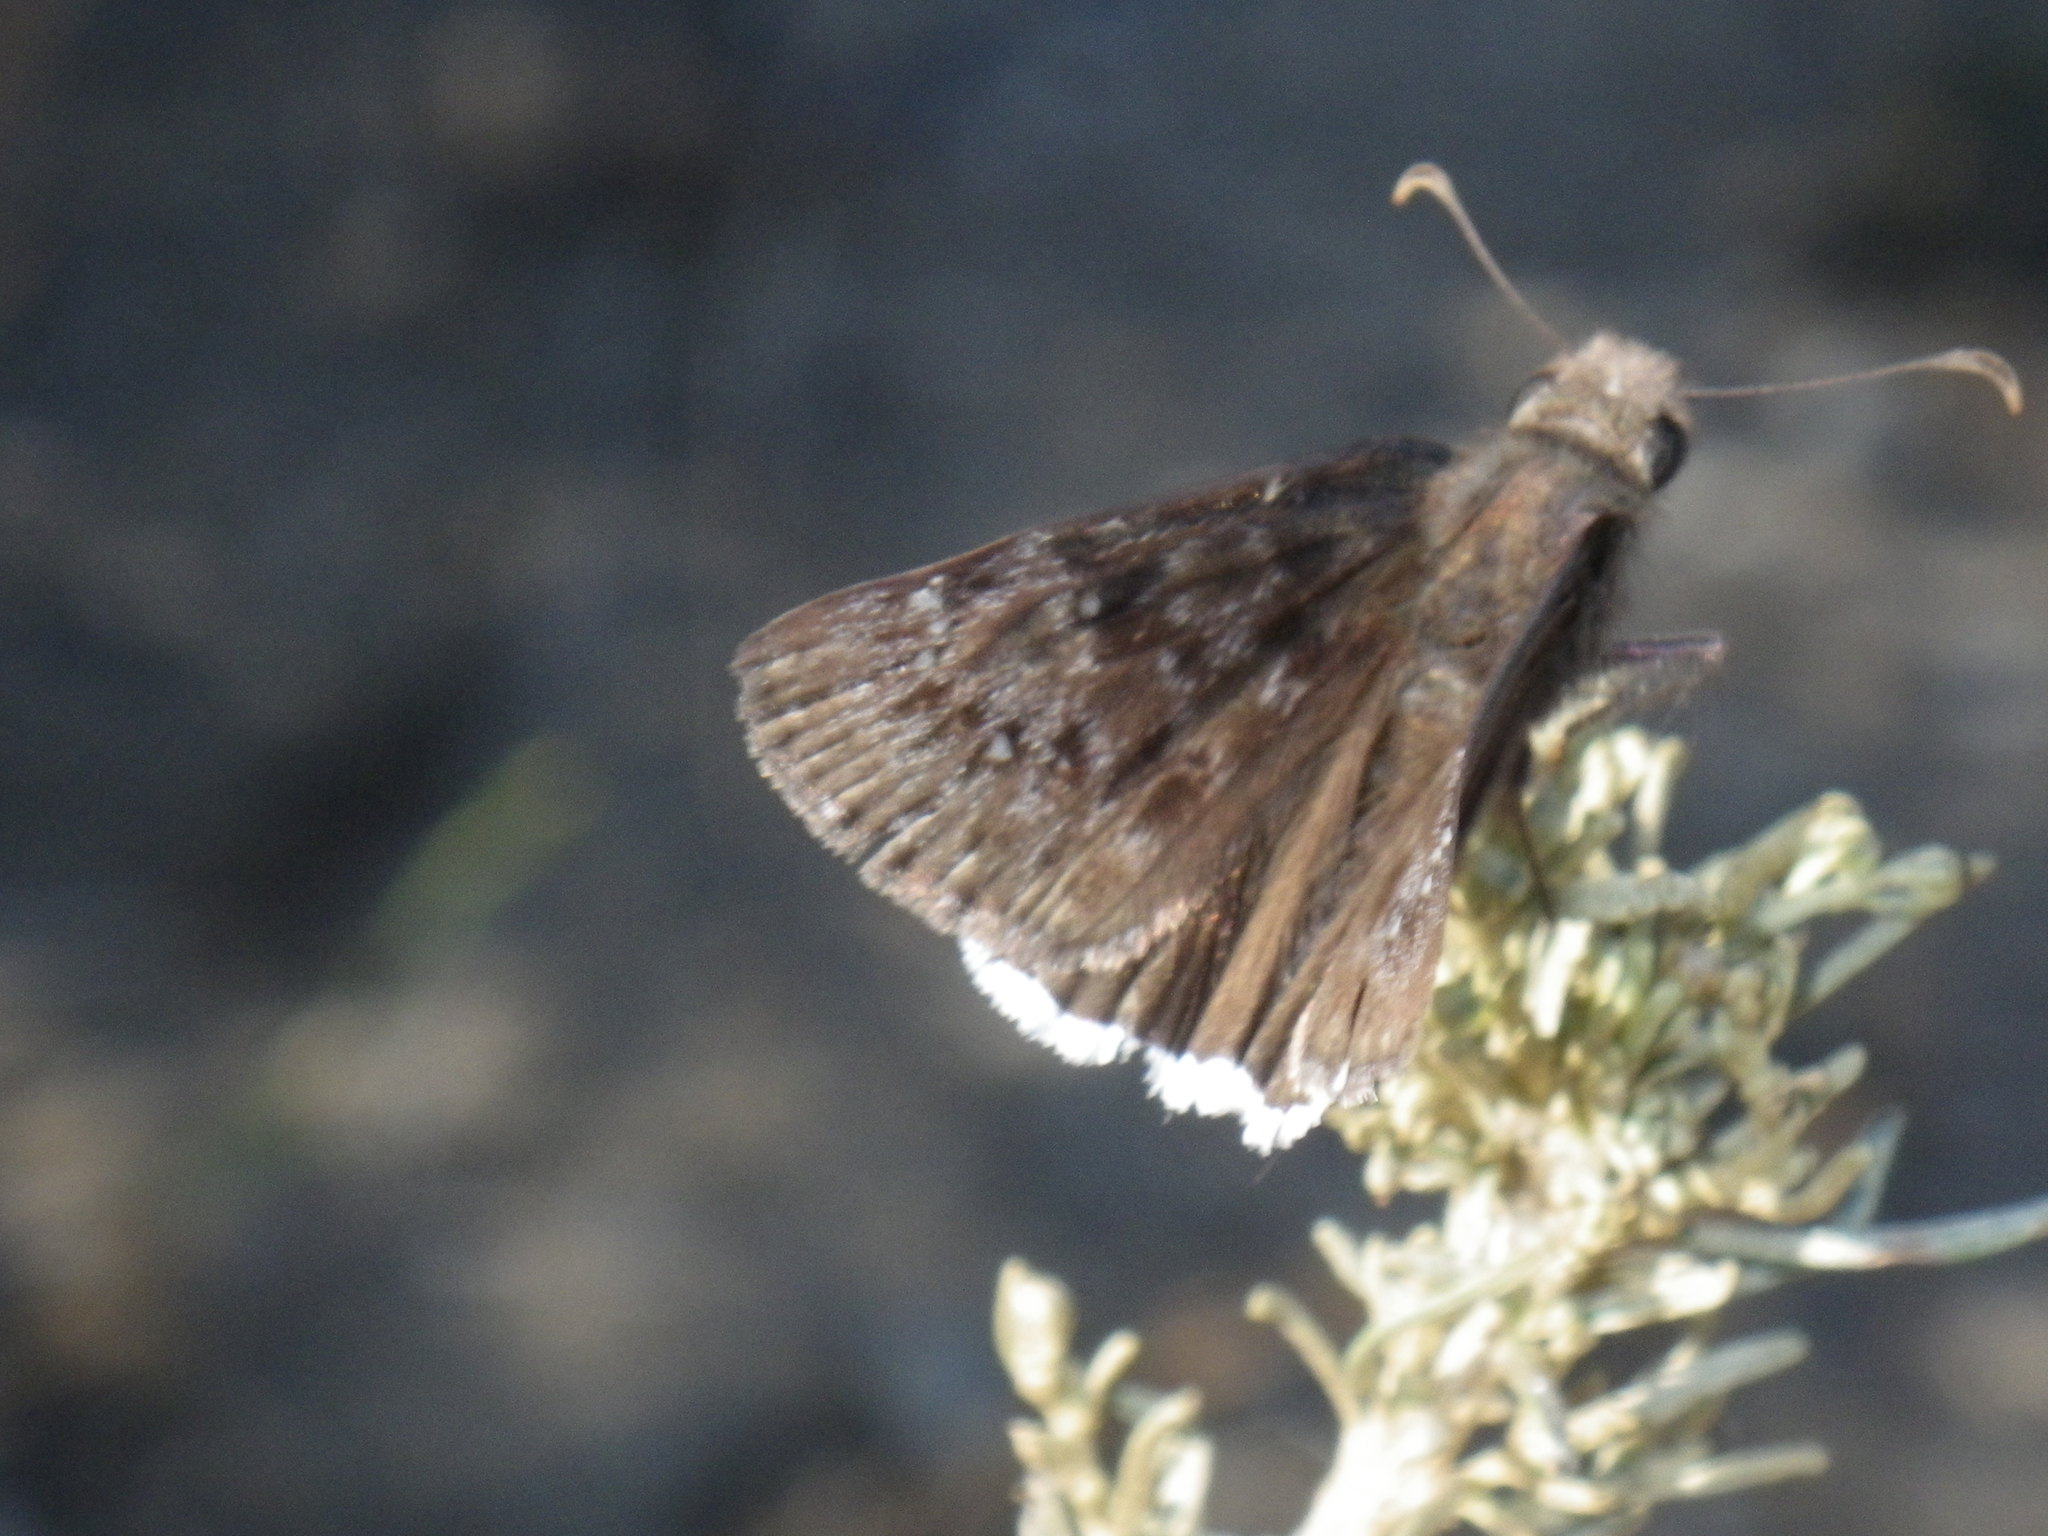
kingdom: Animalia
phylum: Arthropoda
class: Insecta
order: Lepidoptera
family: Hesperiidae
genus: Erynnis
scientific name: Erynnis tristis
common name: Mournful duskywing
